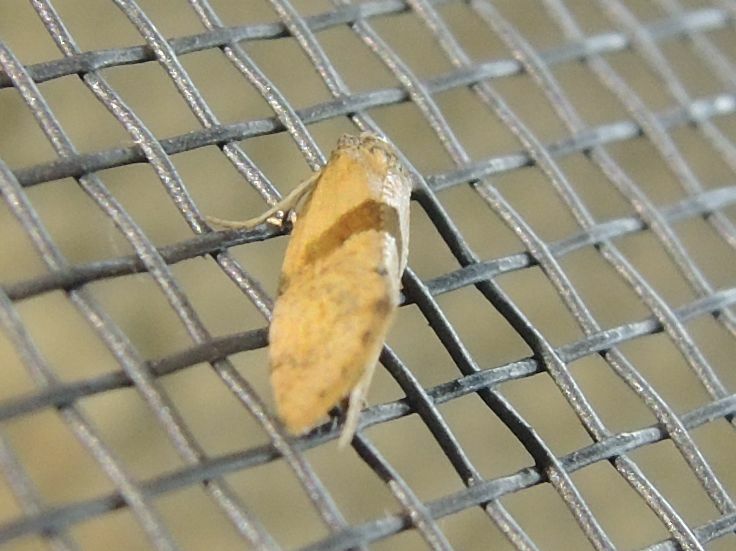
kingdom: Animalia
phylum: Arthropoda
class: Insecta
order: Lepidoptera
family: Tortricidae
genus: Cochylidia
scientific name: Cochylidia implicitana
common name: Chamomile conch
